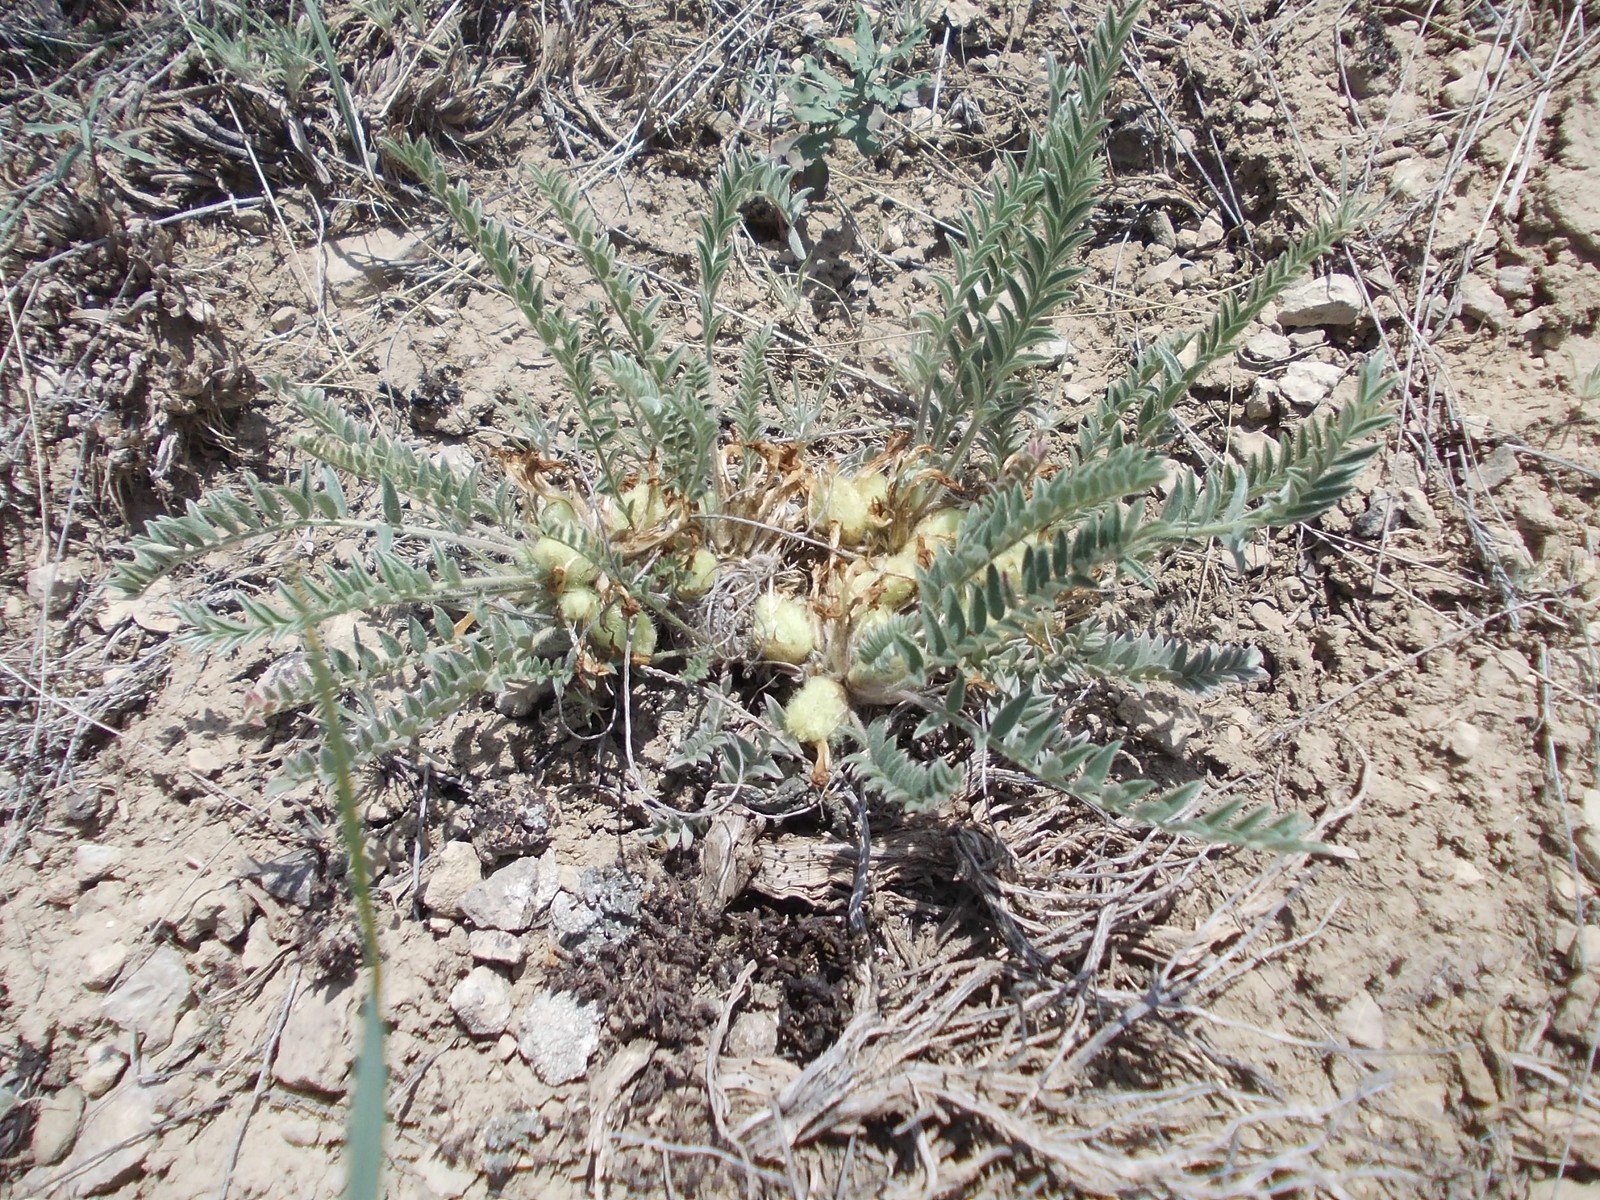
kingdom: Plantae
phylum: Tracheophyta
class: Magnoliopsida
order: Fabales
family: Fabaceae
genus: Astragalus
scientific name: Astragalus testiculatus
